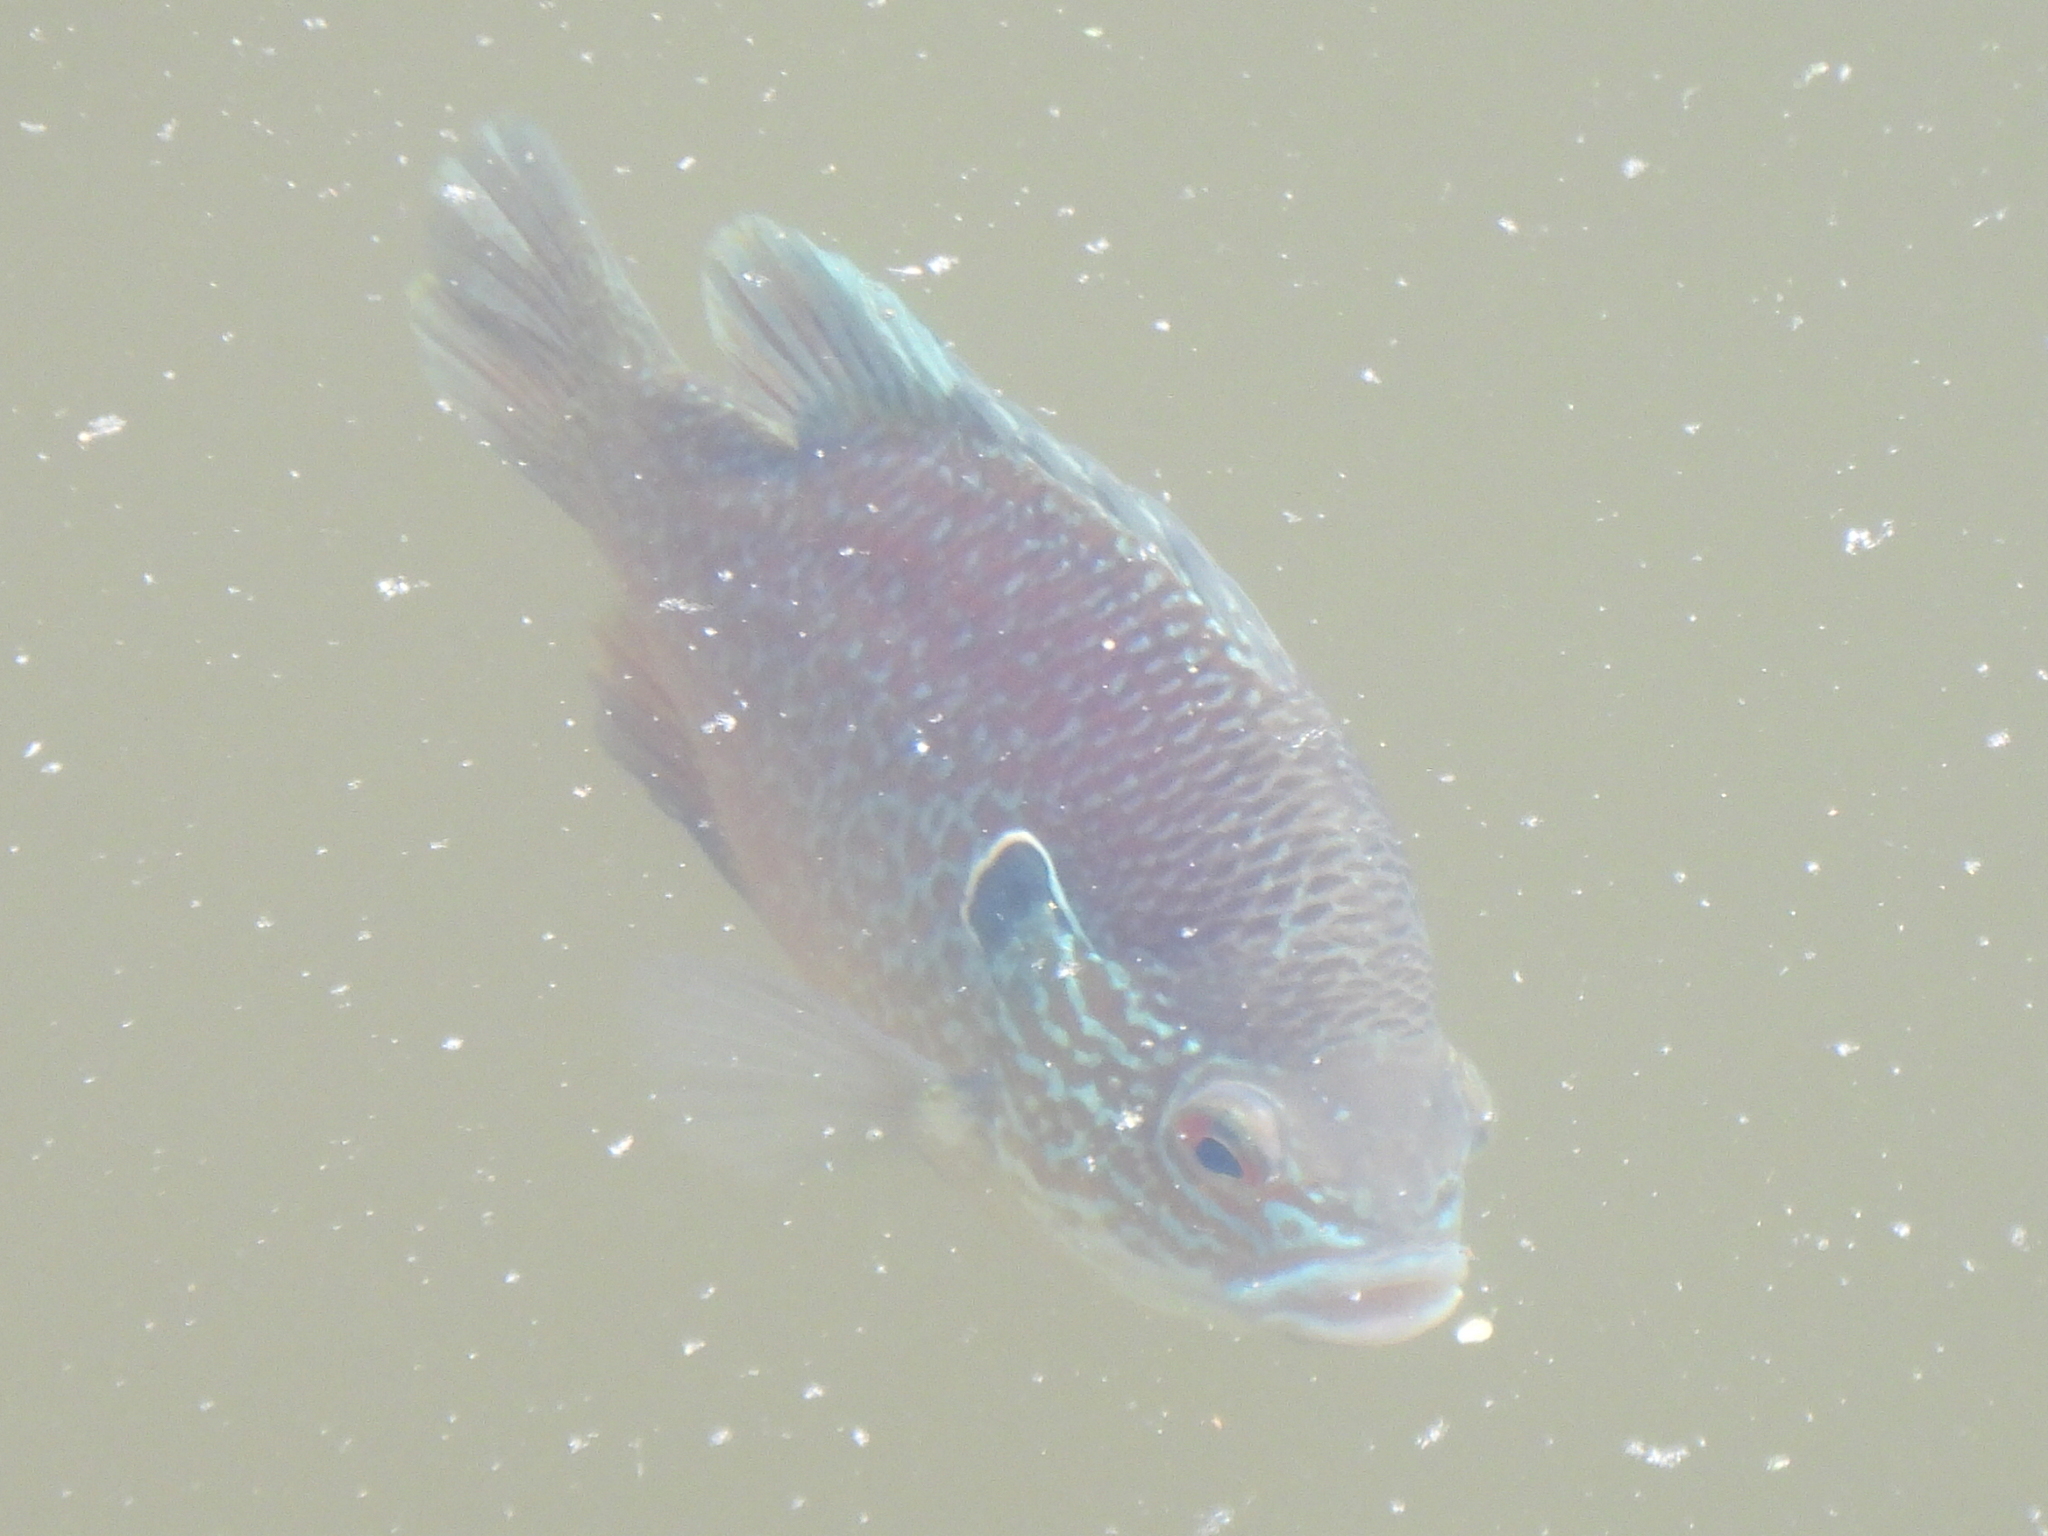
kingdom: Animalia
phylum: Chordata
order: Perciformes
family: Centrarchidae
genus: Lepomis
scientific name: Lepomis megalotis
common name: Longear sunfish
